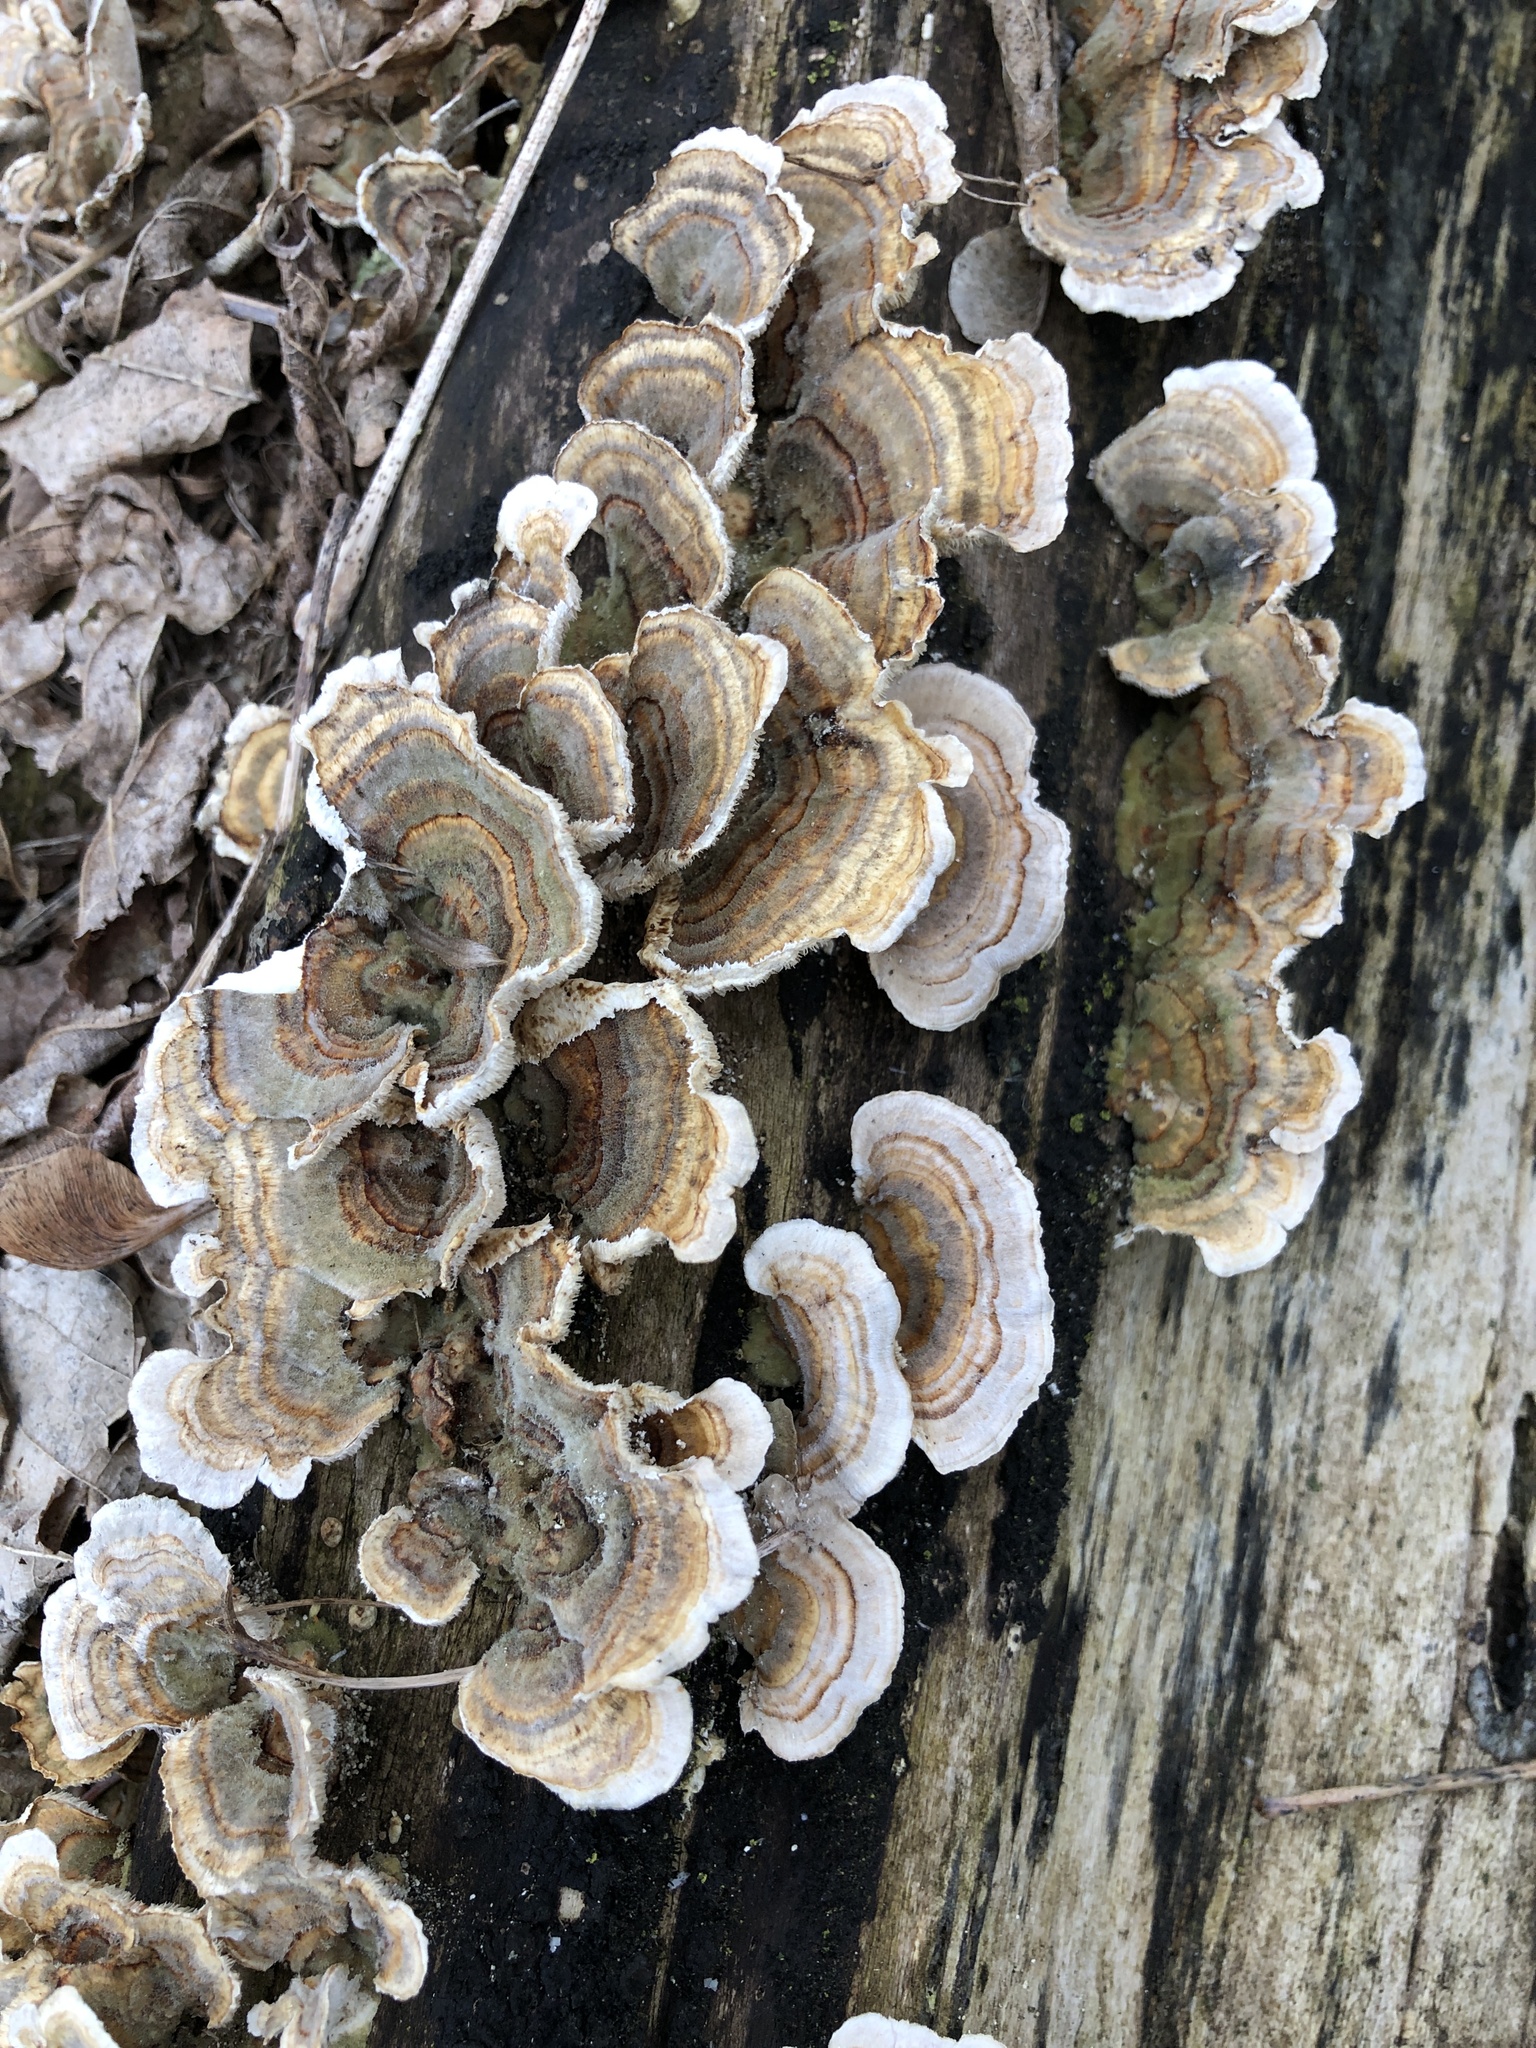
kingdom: Fungi
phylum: Basidiomycota
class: Agaricomycetes
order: Polyporales
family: Polyporaceae
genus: Trametes
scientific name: Trametes versicolor
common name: Turkeytail
